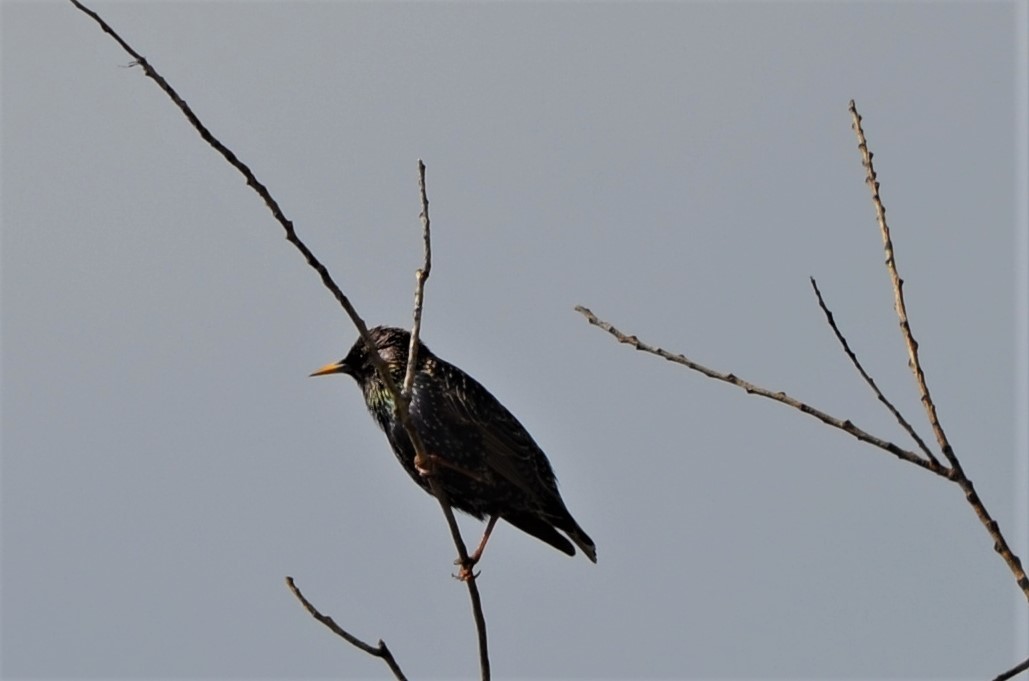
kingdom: Animalia
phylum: Chordata
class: Aves
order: Passeriformes
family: Sturnidae
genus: Sturnus
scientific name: Sturnus vulgaris
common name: Common starling
